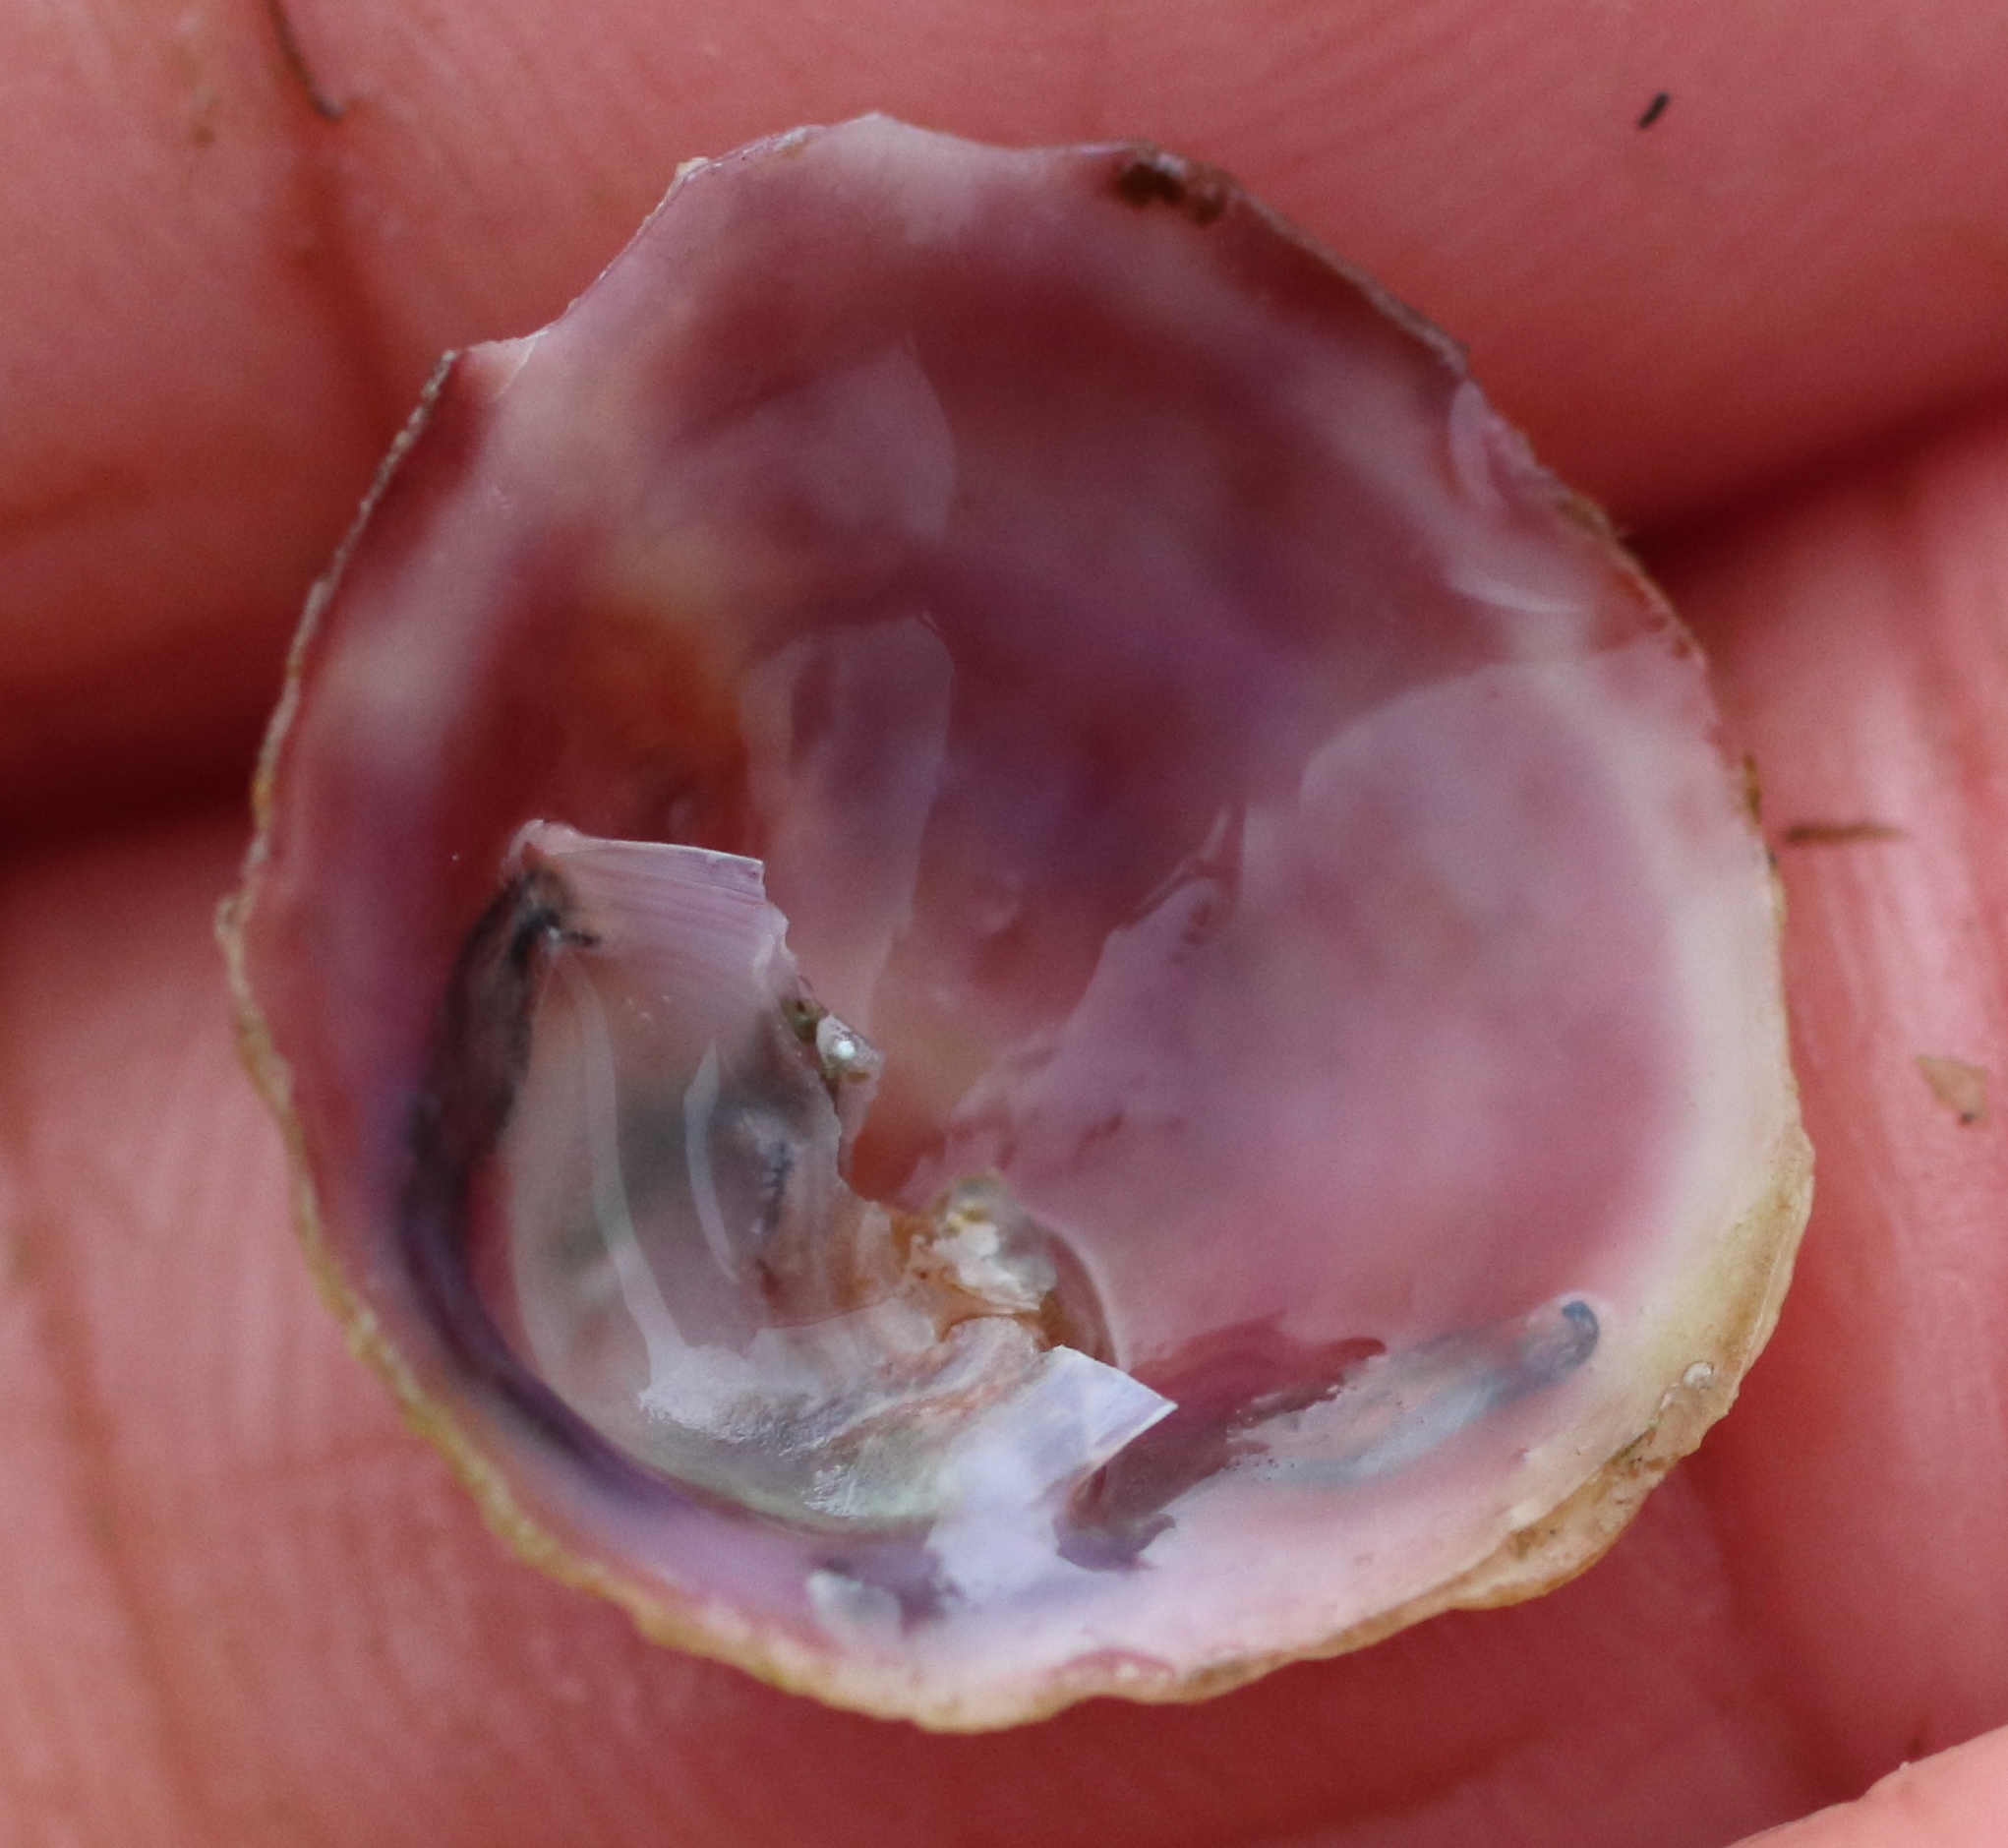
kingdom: Animalia
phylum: Mollusca
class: Gastropoda
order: Littorinimorpha
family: Calyptraeidae
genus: Crepipatella
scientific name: Crepipatella lingulata
